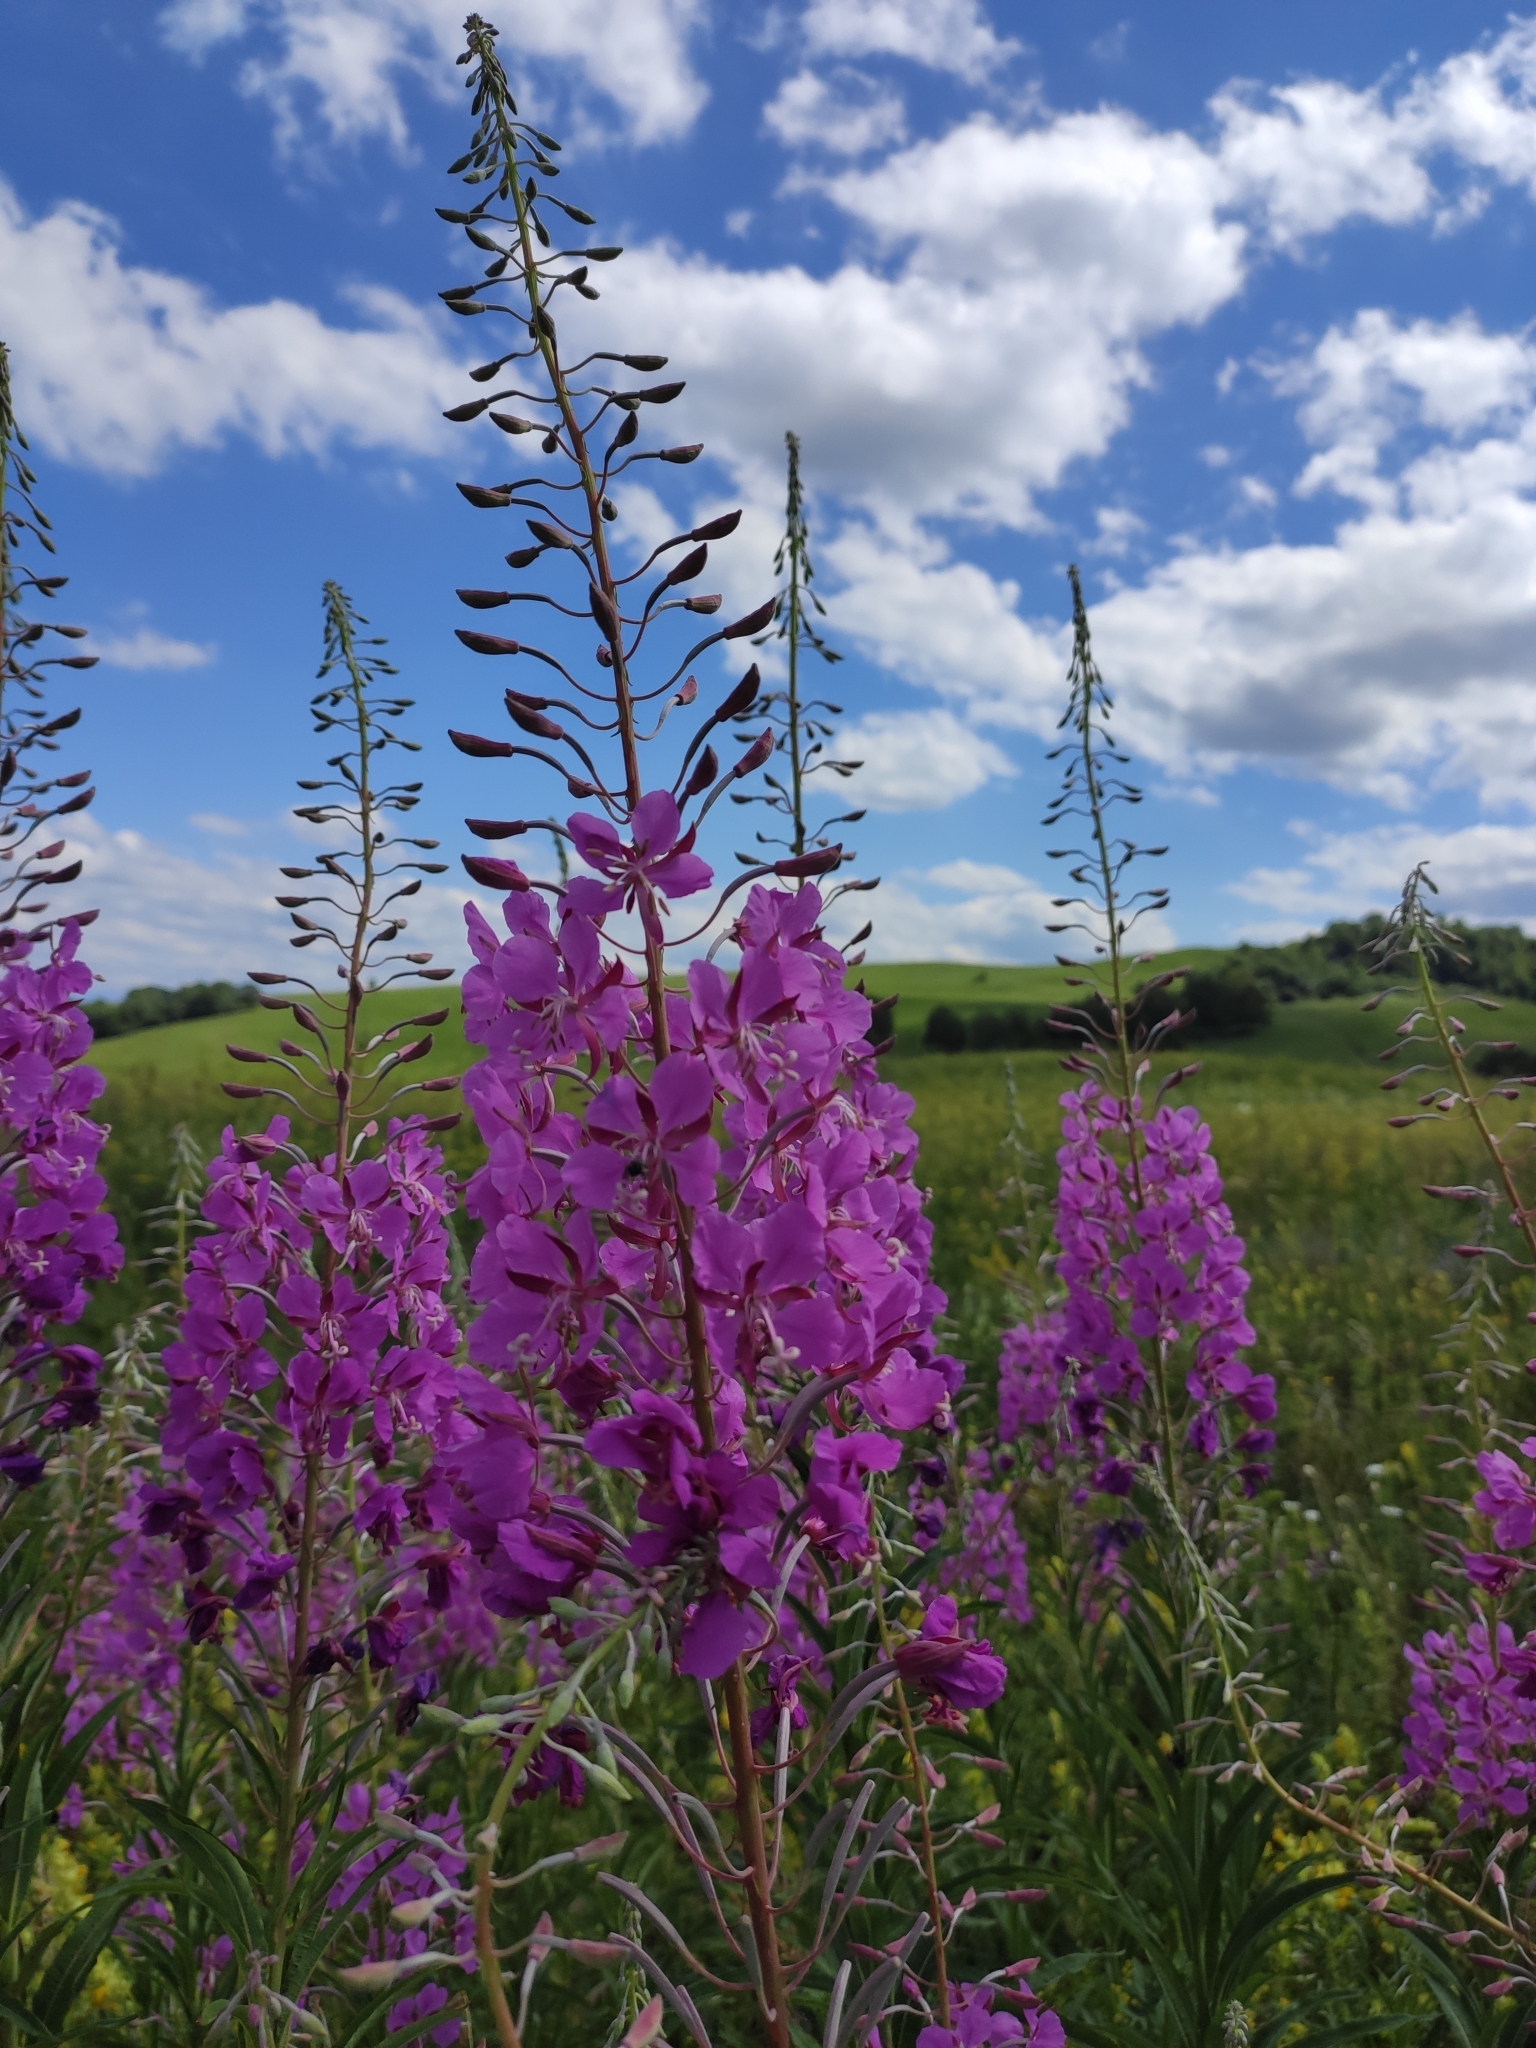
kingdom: Plantae
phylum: Tracheophyta
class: Magnoliopsida
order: Myrtales
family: Onagraceae
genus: Chamaenerion
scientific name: Chamaenerion angustifolium
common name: Fireweed
